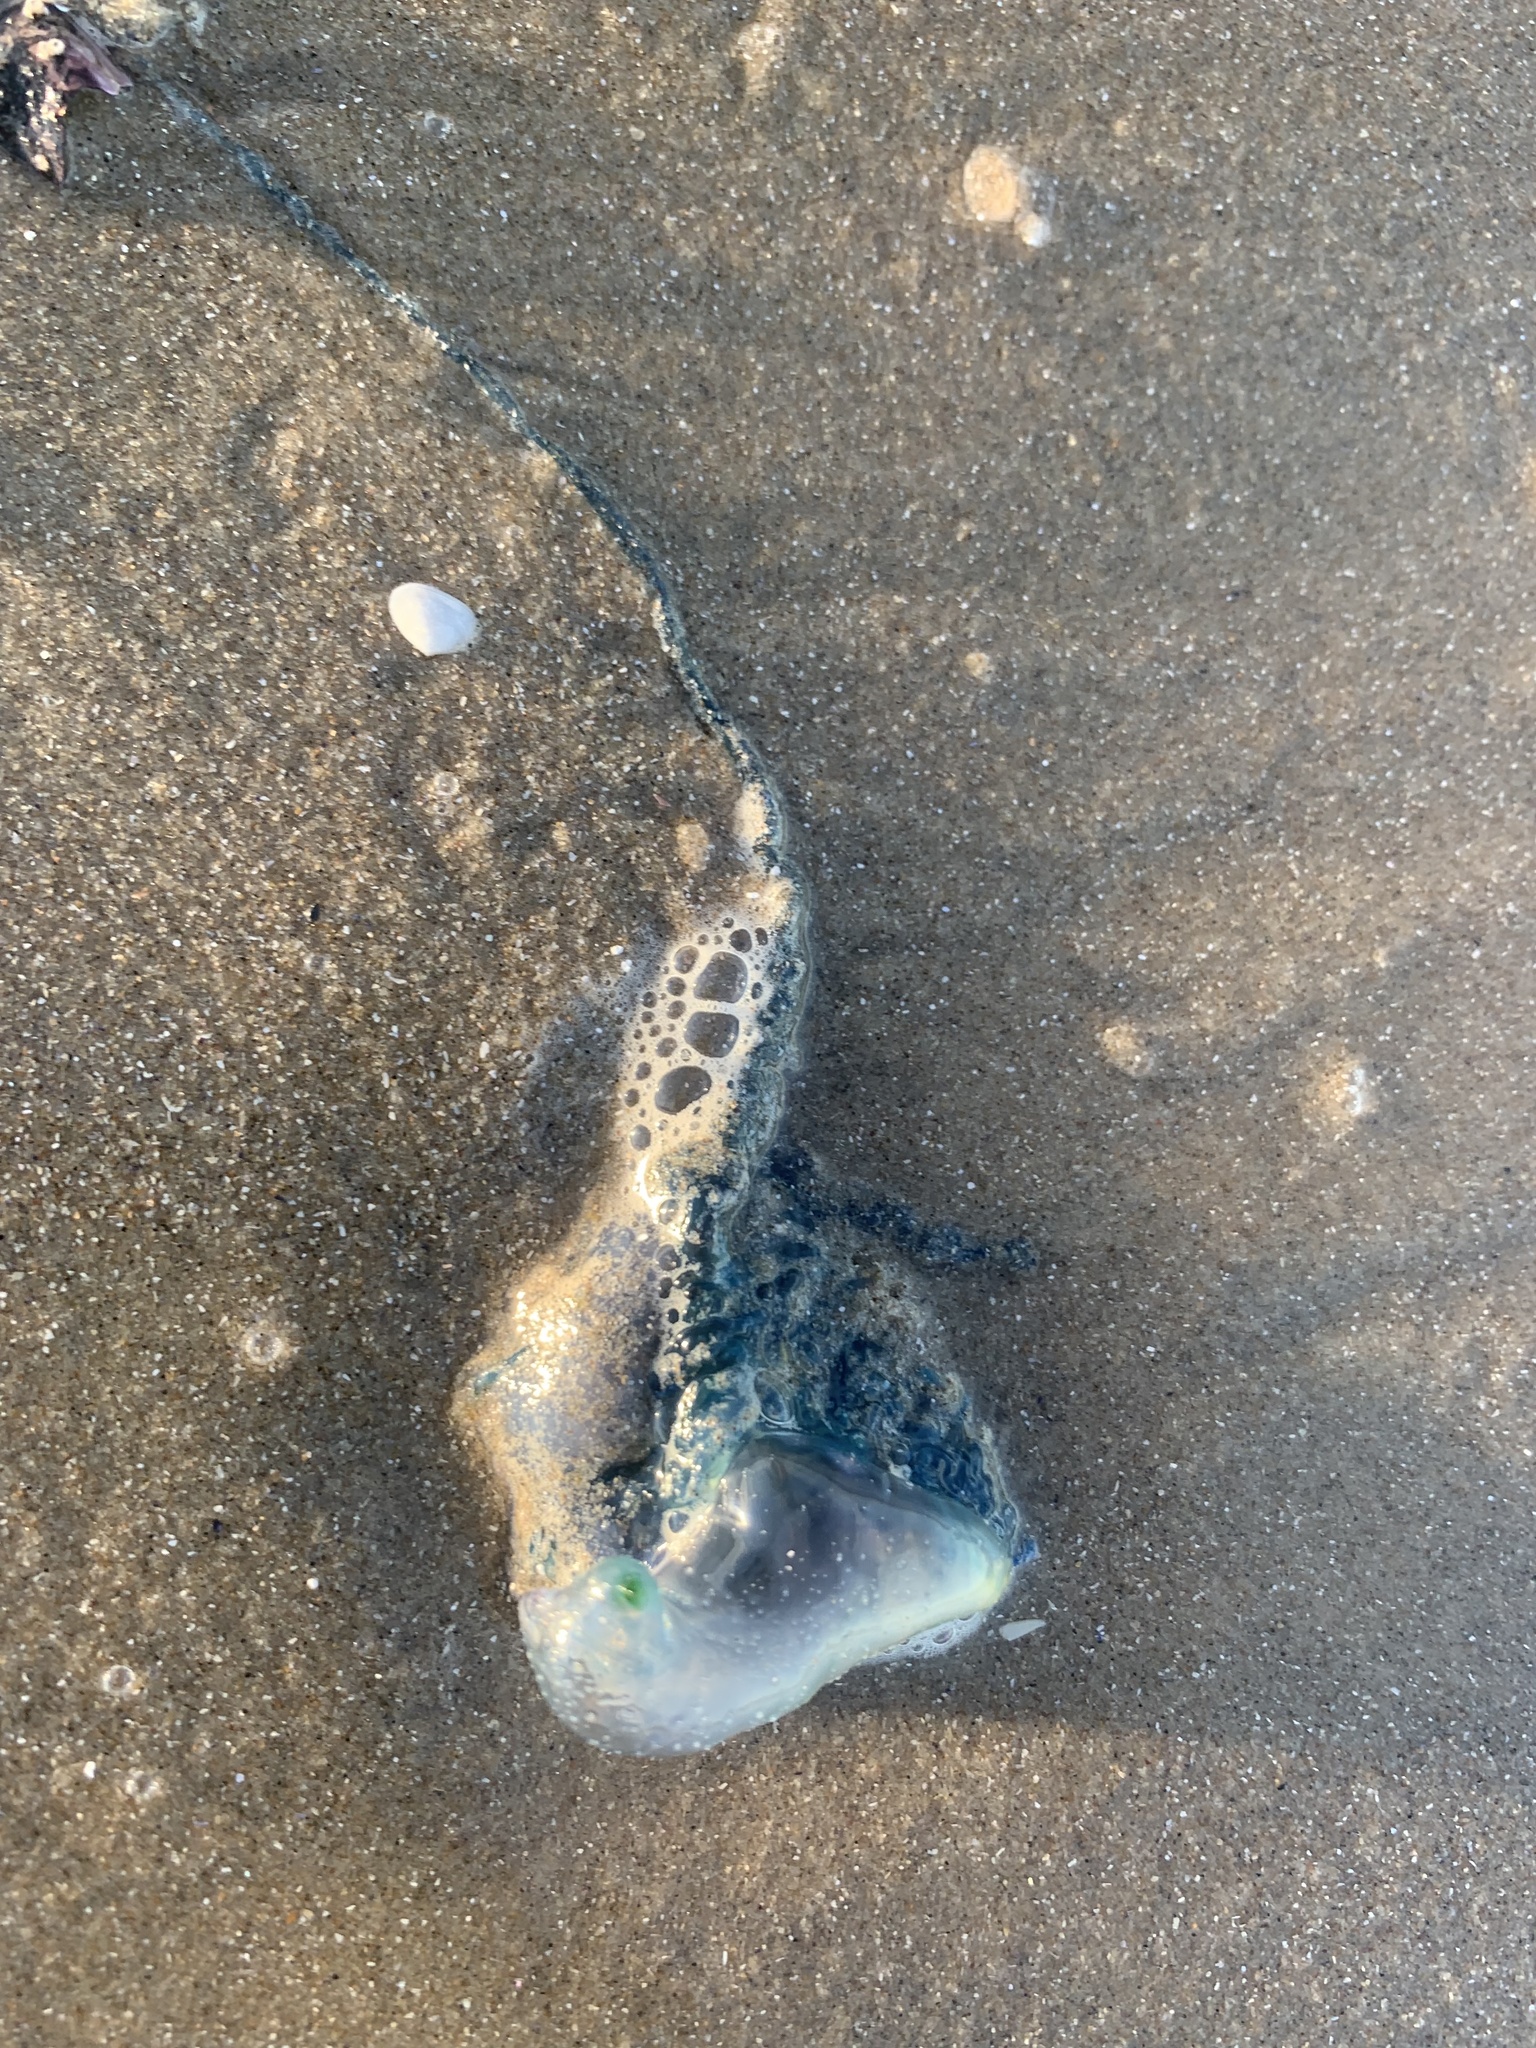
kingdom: Animalia
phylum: Cnidaria
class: Hydrozoa
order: Siphonophorae
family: Physaliidae
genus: Physalia
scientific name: Physalia physalis
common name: Portuguese man-of-war
